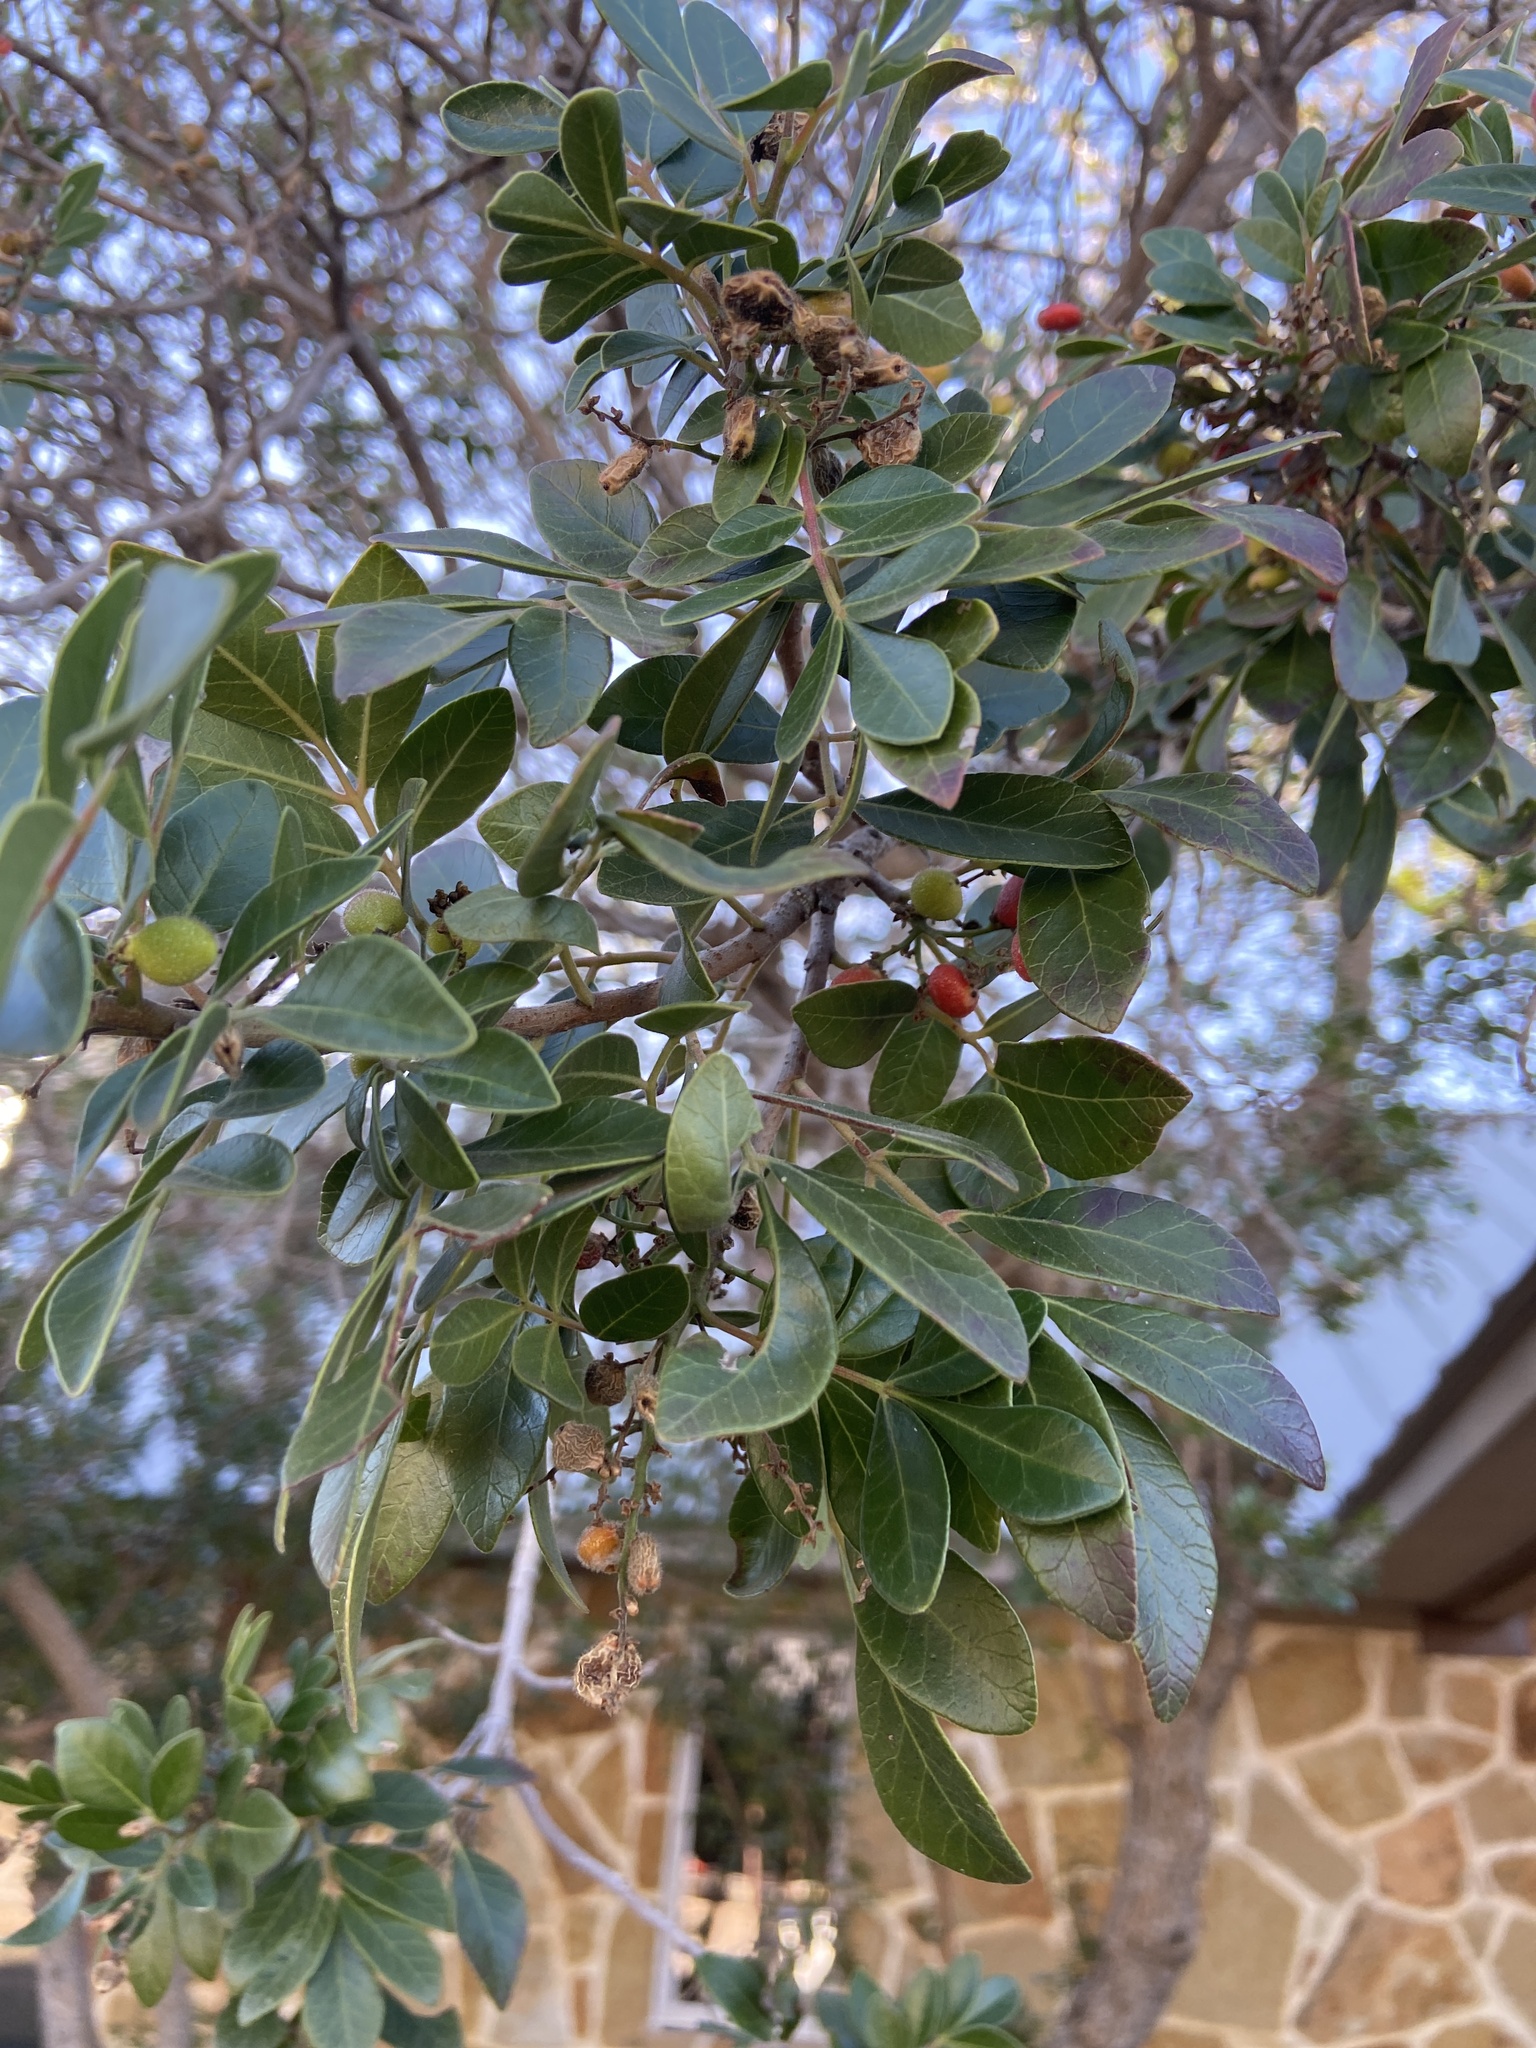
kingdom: Plantae
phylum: Tracheophyta
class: Magnoliopsida
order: Sapindales
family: Anacardiaceae
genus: Rhus
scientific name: Rhus virens
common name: Evergreen sumac
